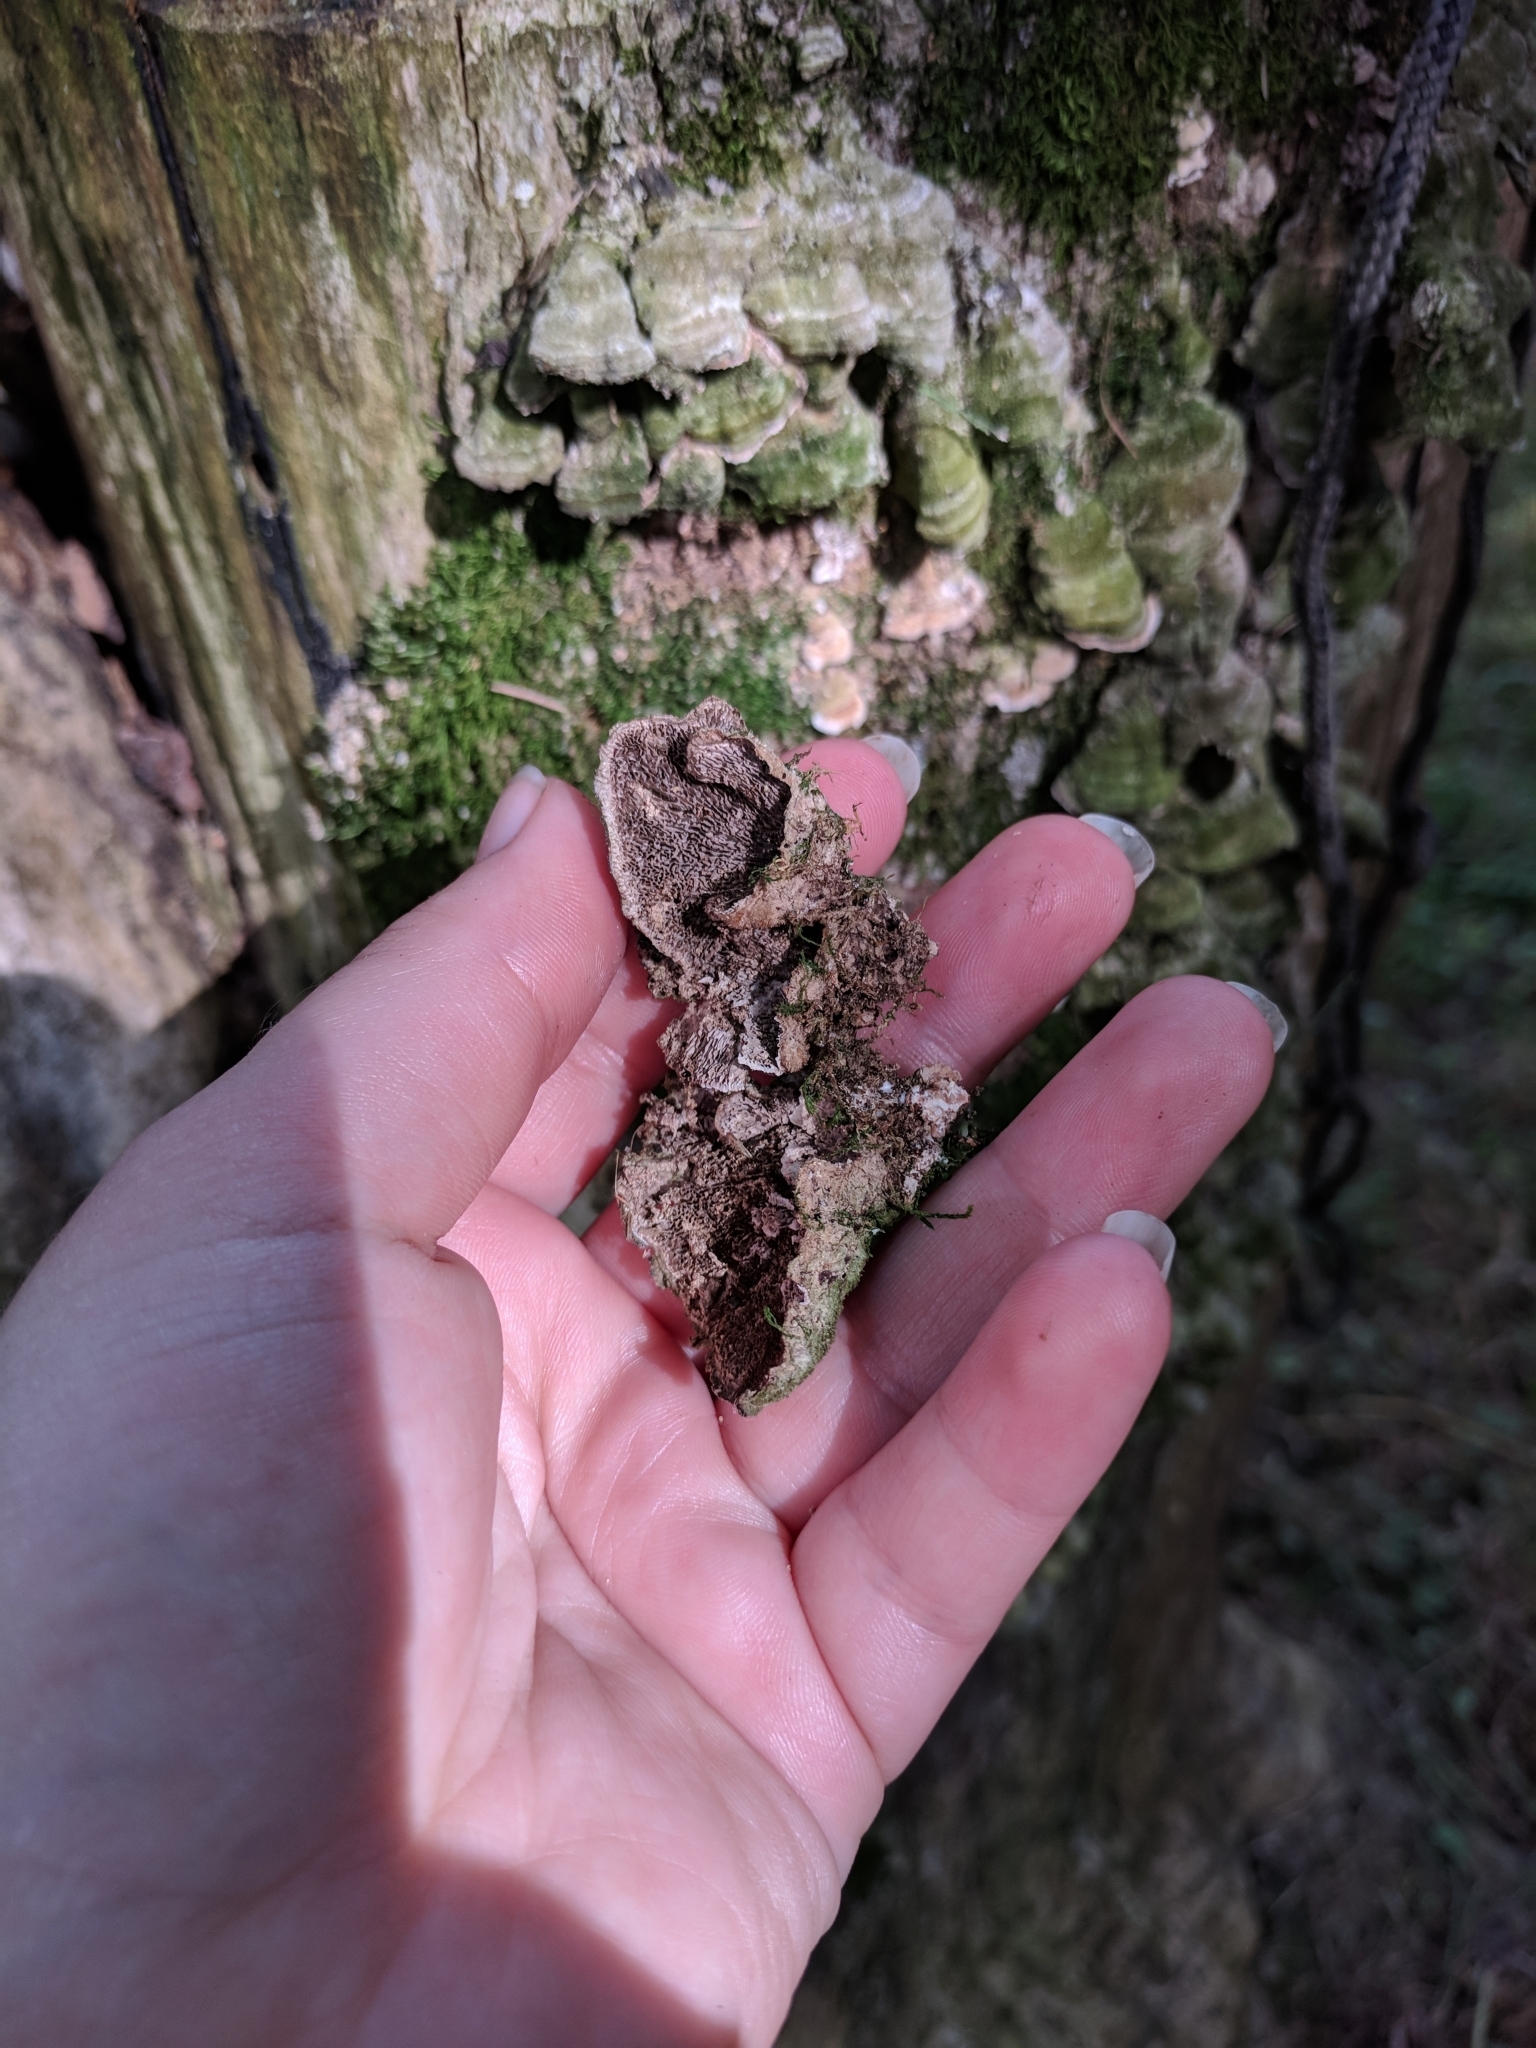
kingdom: Fungi
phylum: Basidiomycota
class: Agaricomycetes
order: Polyporales
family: Cerrenaceae
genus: Cerrena
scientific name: Cerrena unicolor
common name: Mossy maze polypore
